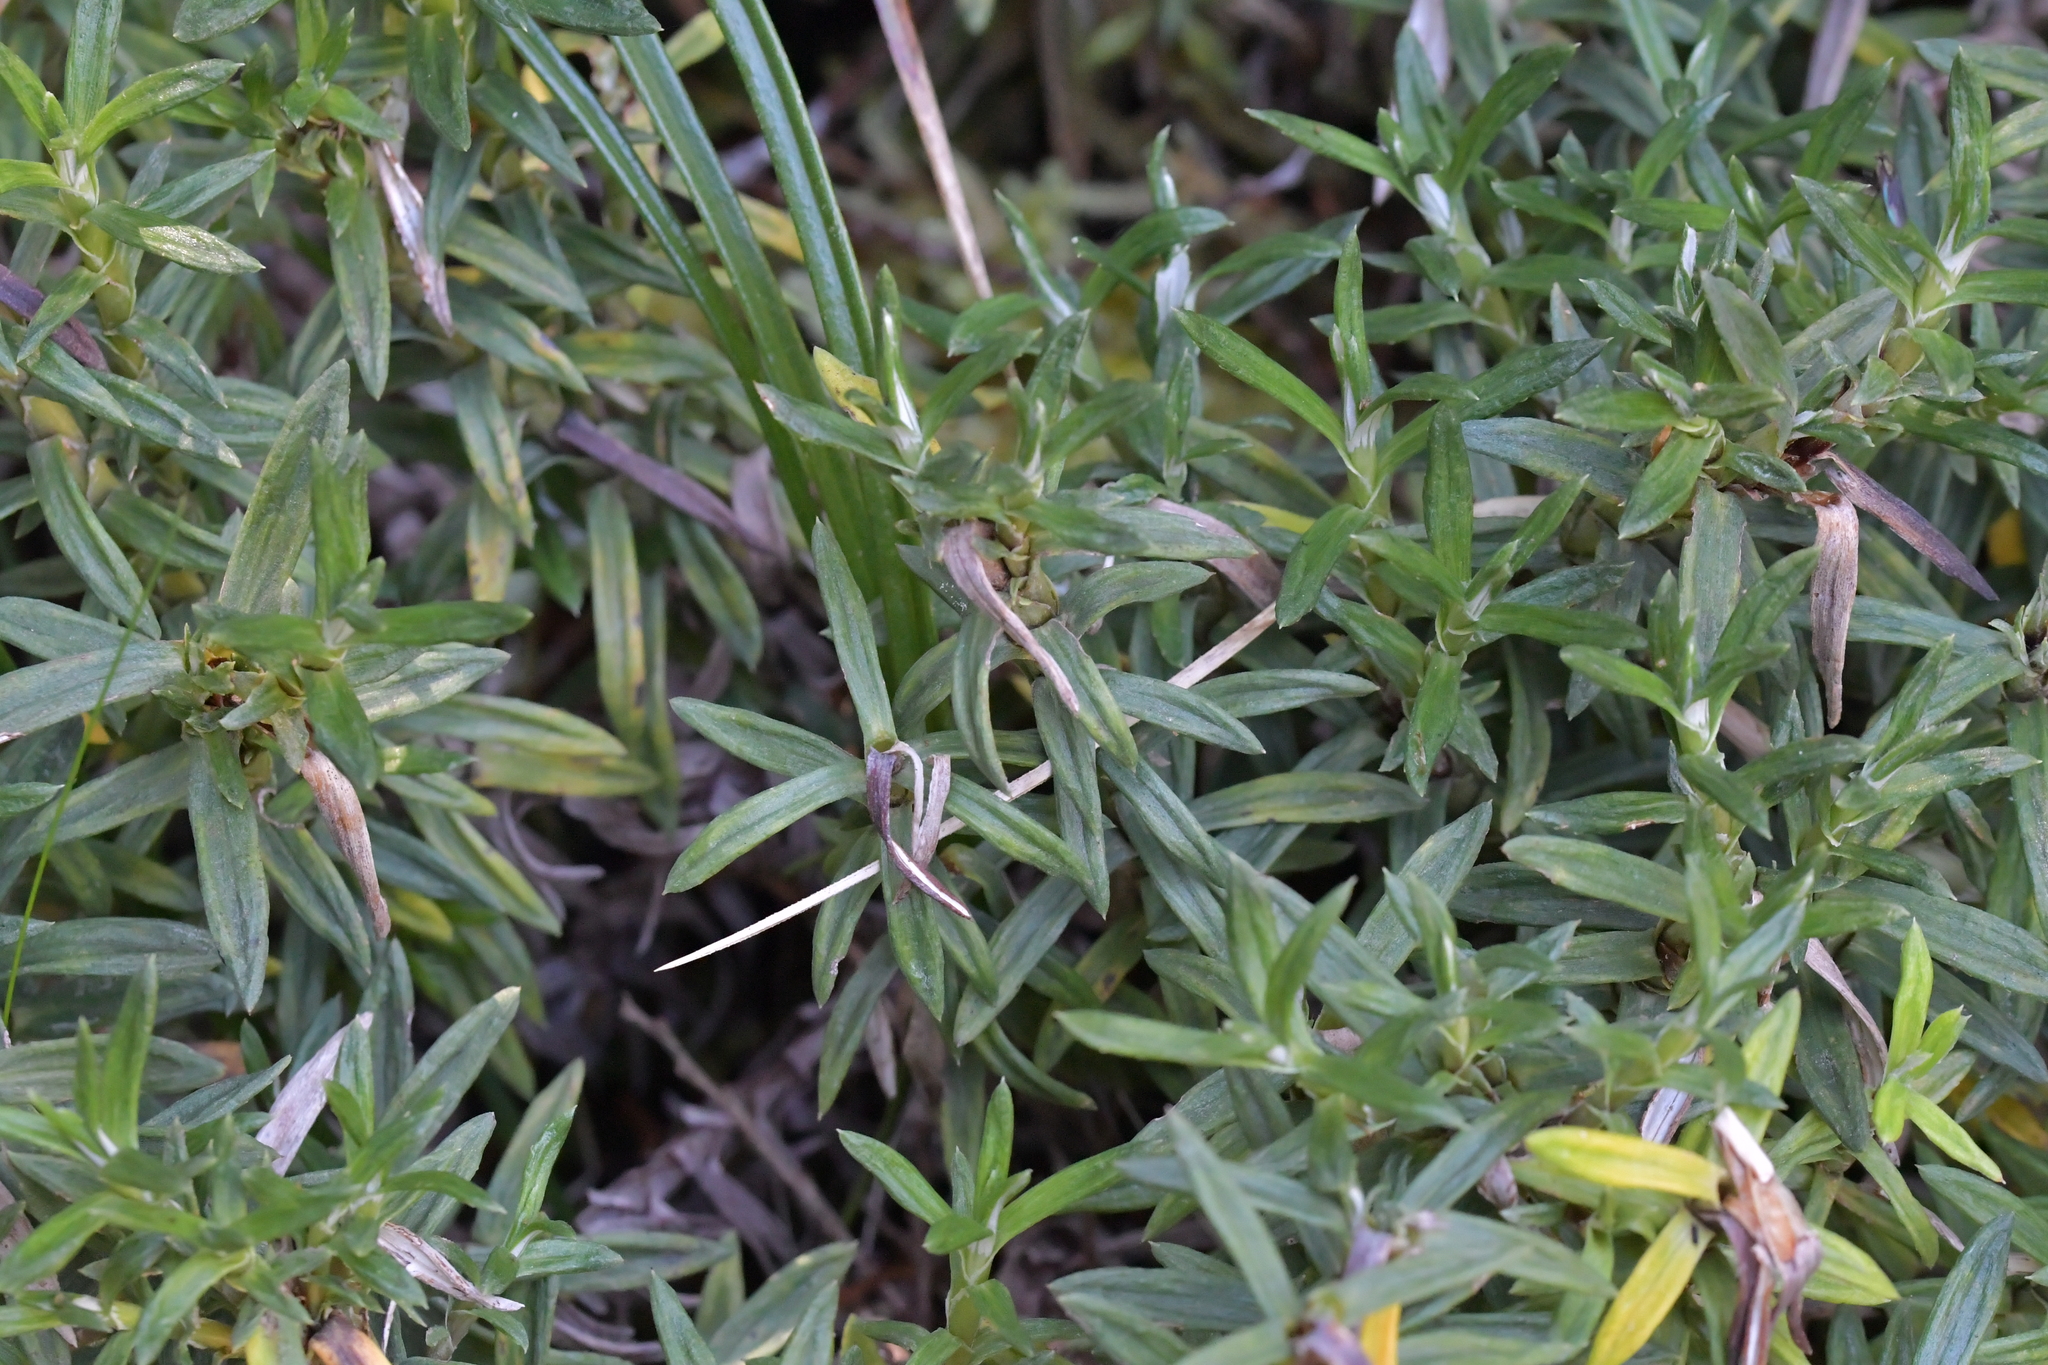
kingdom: Plantae
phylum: Tracheophyta
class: Magnoliopsida
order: Asterales
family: Asteraceae
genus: Celmisia
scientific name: Celmisia walkeri
